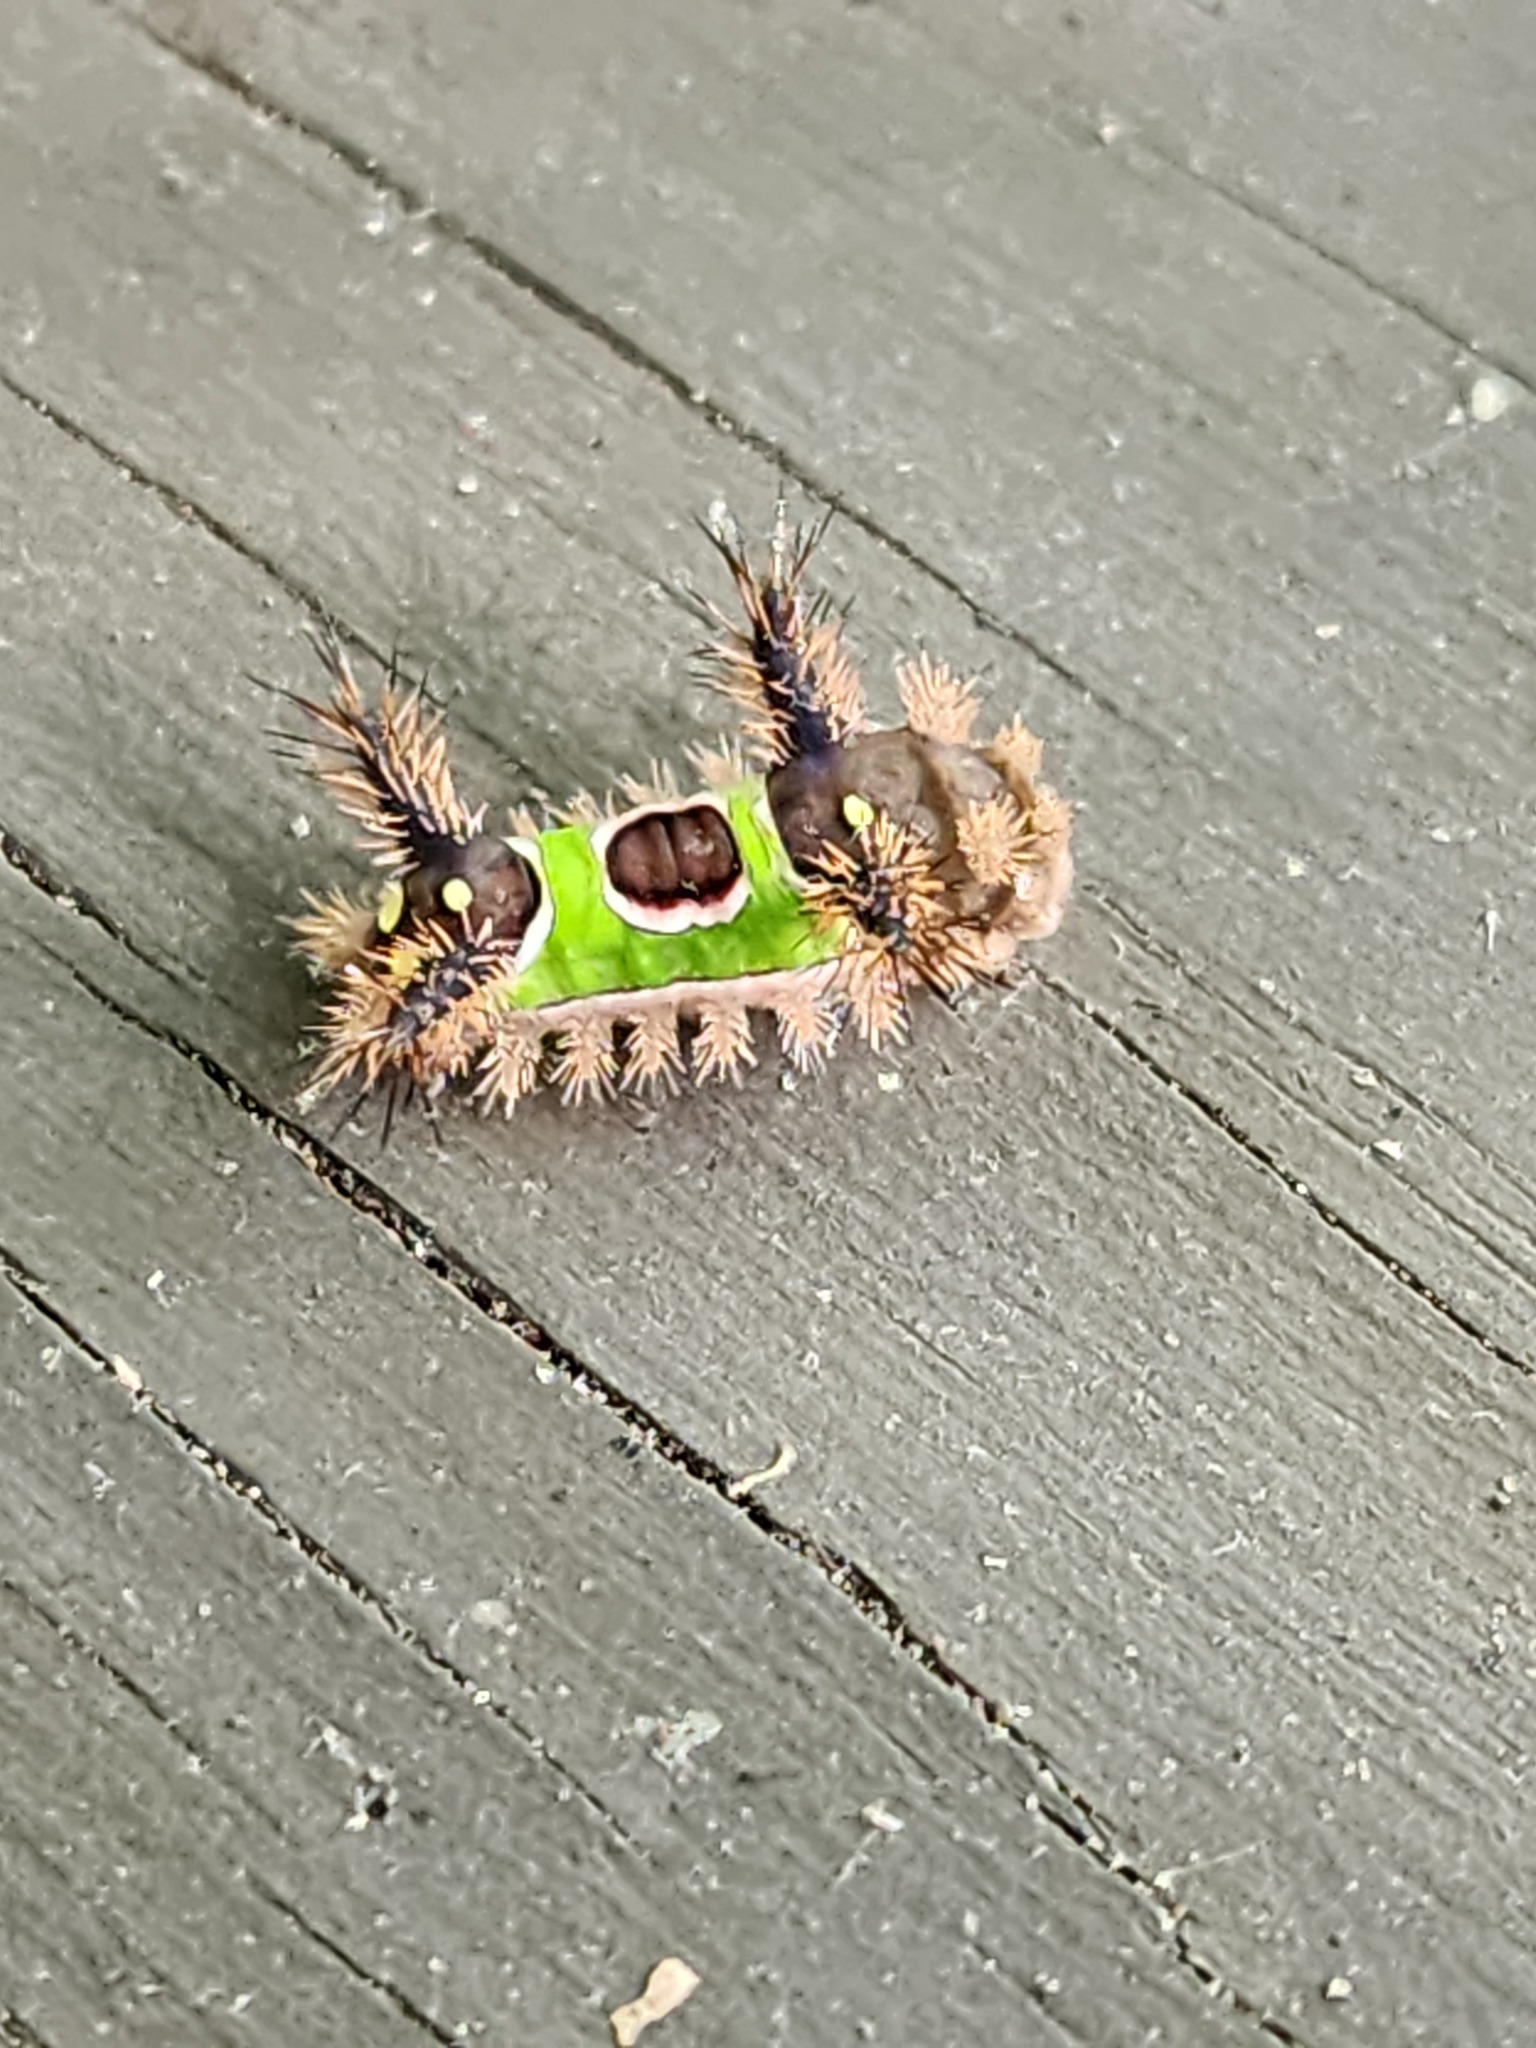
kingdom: Animalia
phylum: Arthropoda
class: Insecta
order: Lepidoptera
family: Limacodidae
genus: Acharia
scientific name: Acharia stimulea
